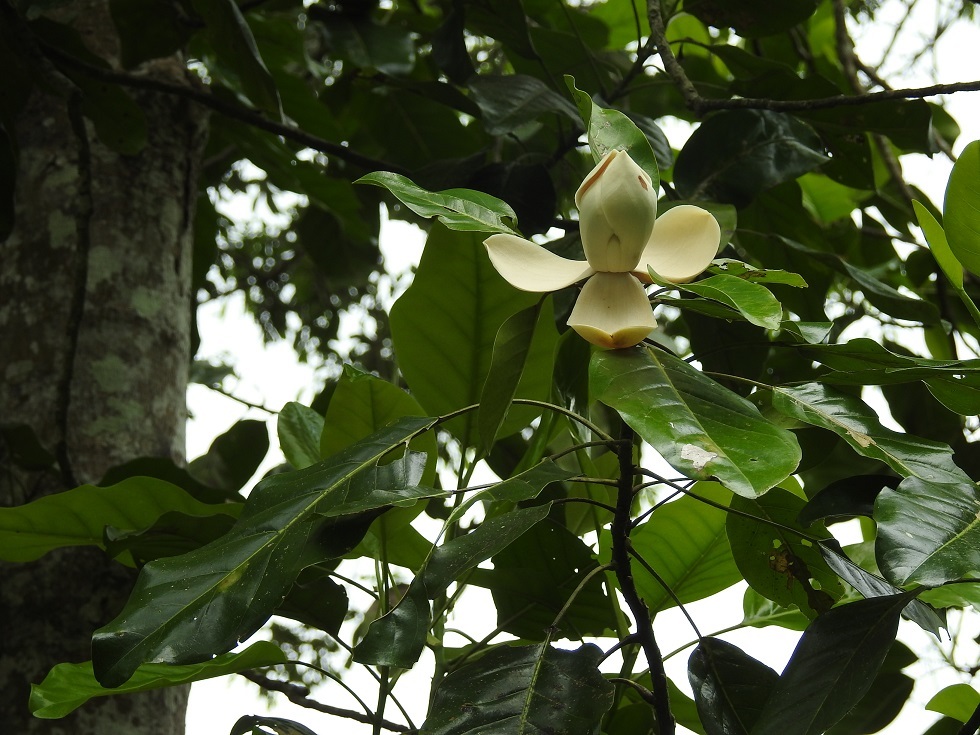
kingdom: Plantae
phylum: Tracheophyta
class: Magnoliopsida
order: Magnoliales
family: Magnoliaceae
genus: Magnolia
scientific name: Magnolia perezfarrerae
